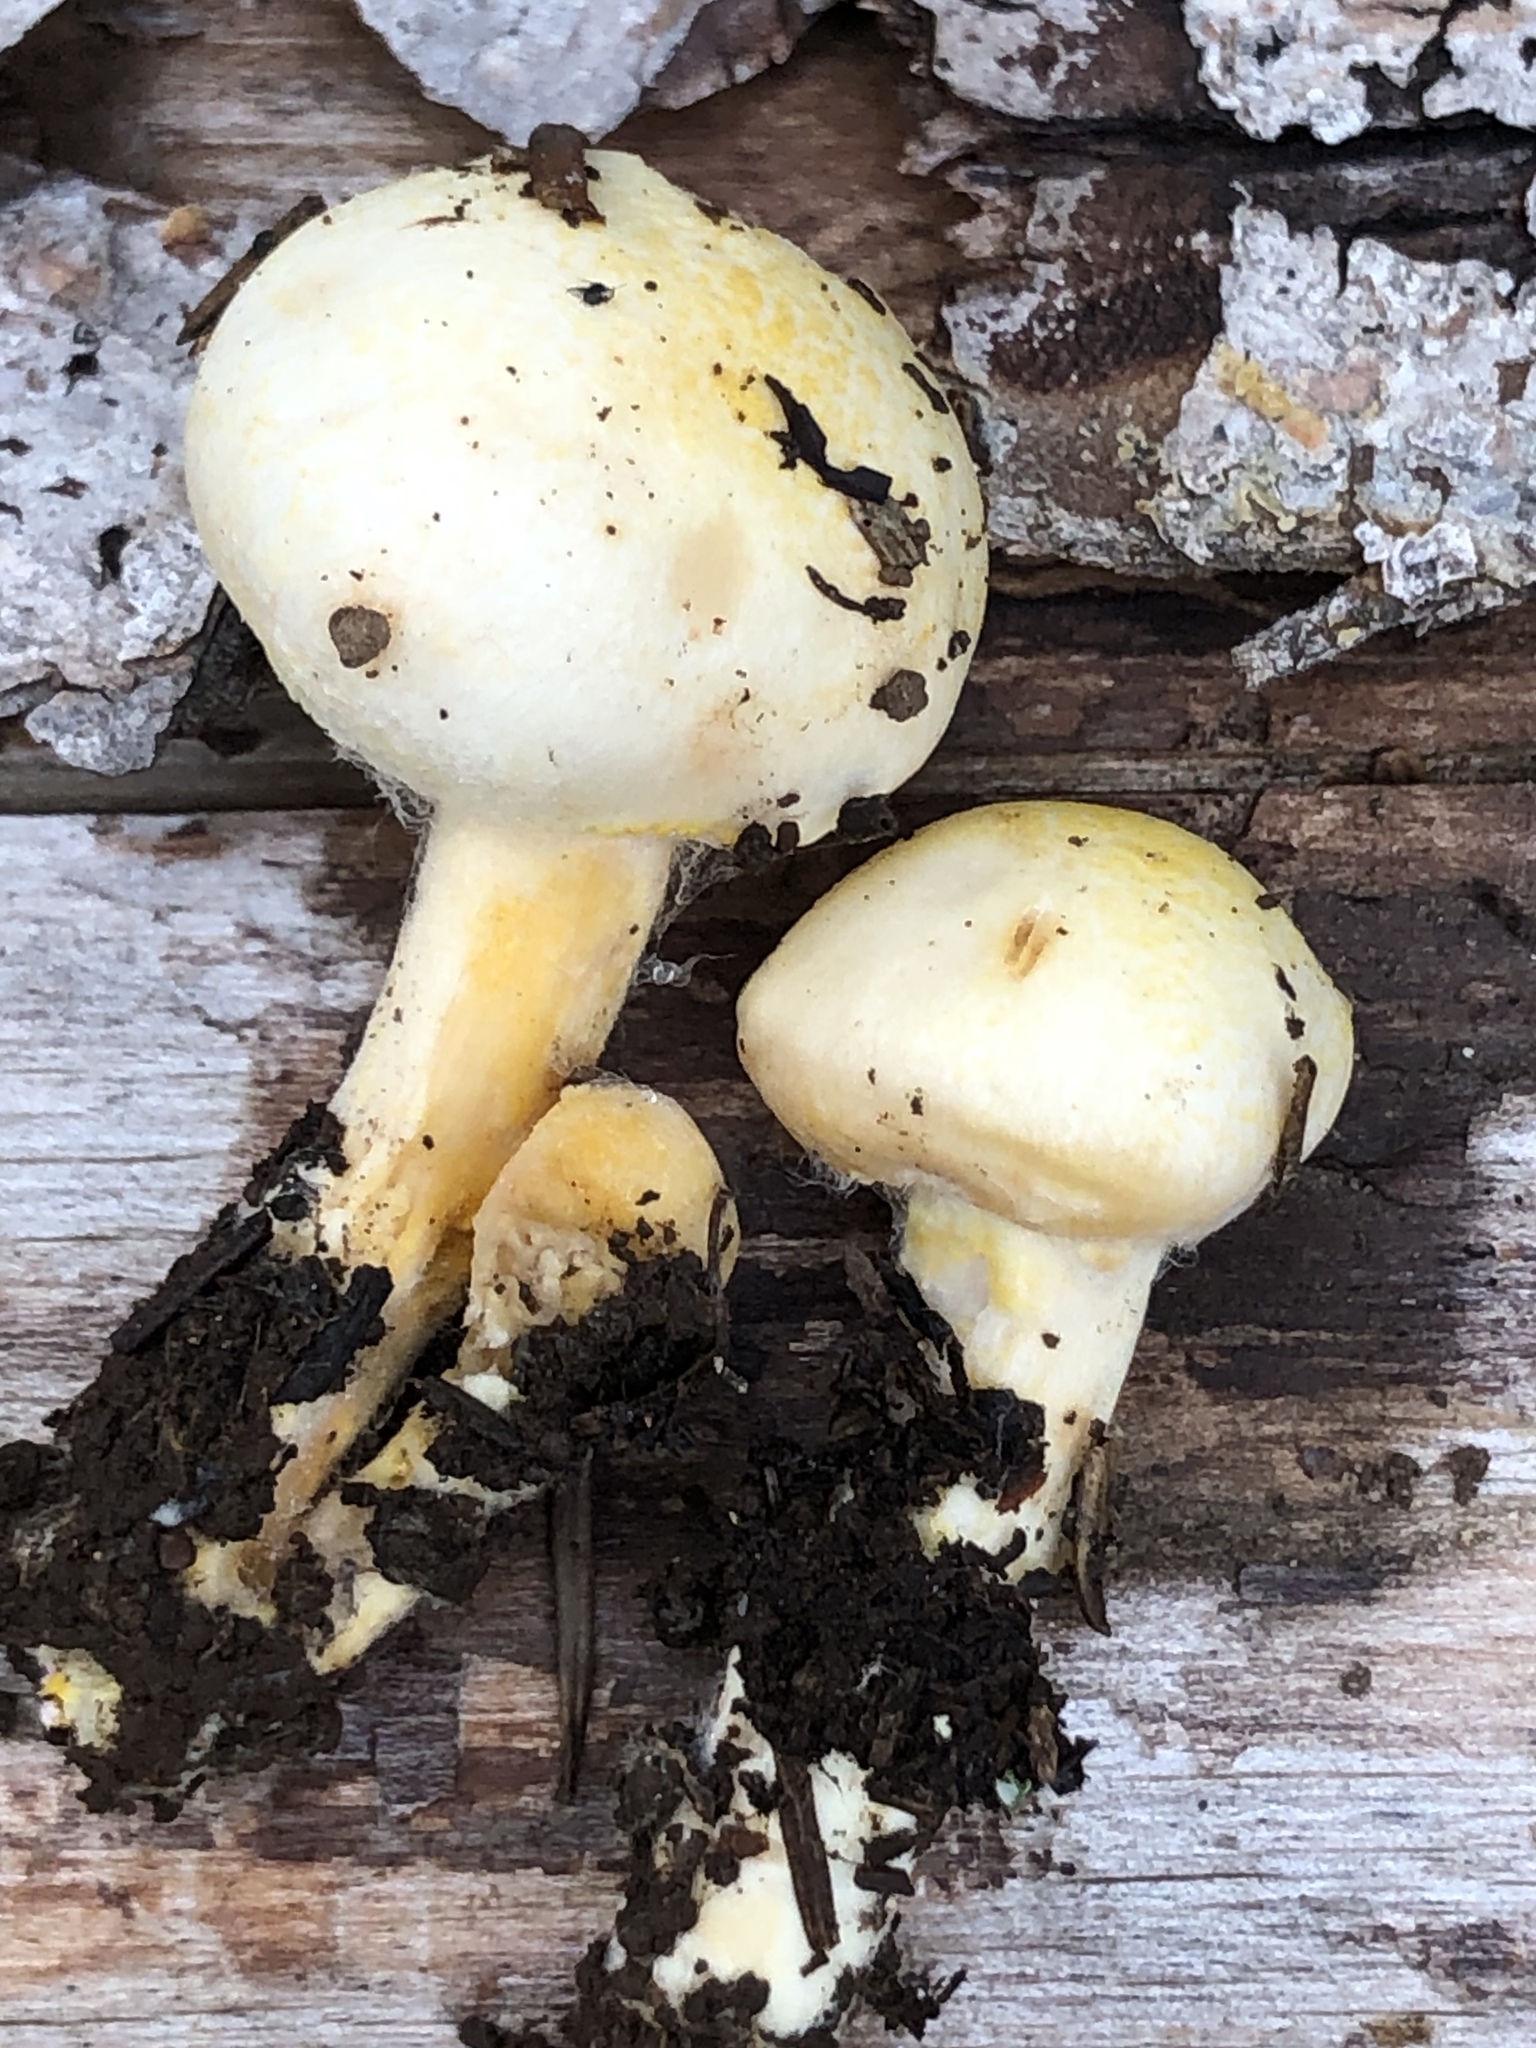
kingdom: Fungi
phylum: Basidiomycota
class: Agaricomycetes
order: Agaricales
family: Hygrophoraceae
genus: Hygrophorus
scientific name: Hygrophorus chrysodon
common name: Gold flecked woodwax
